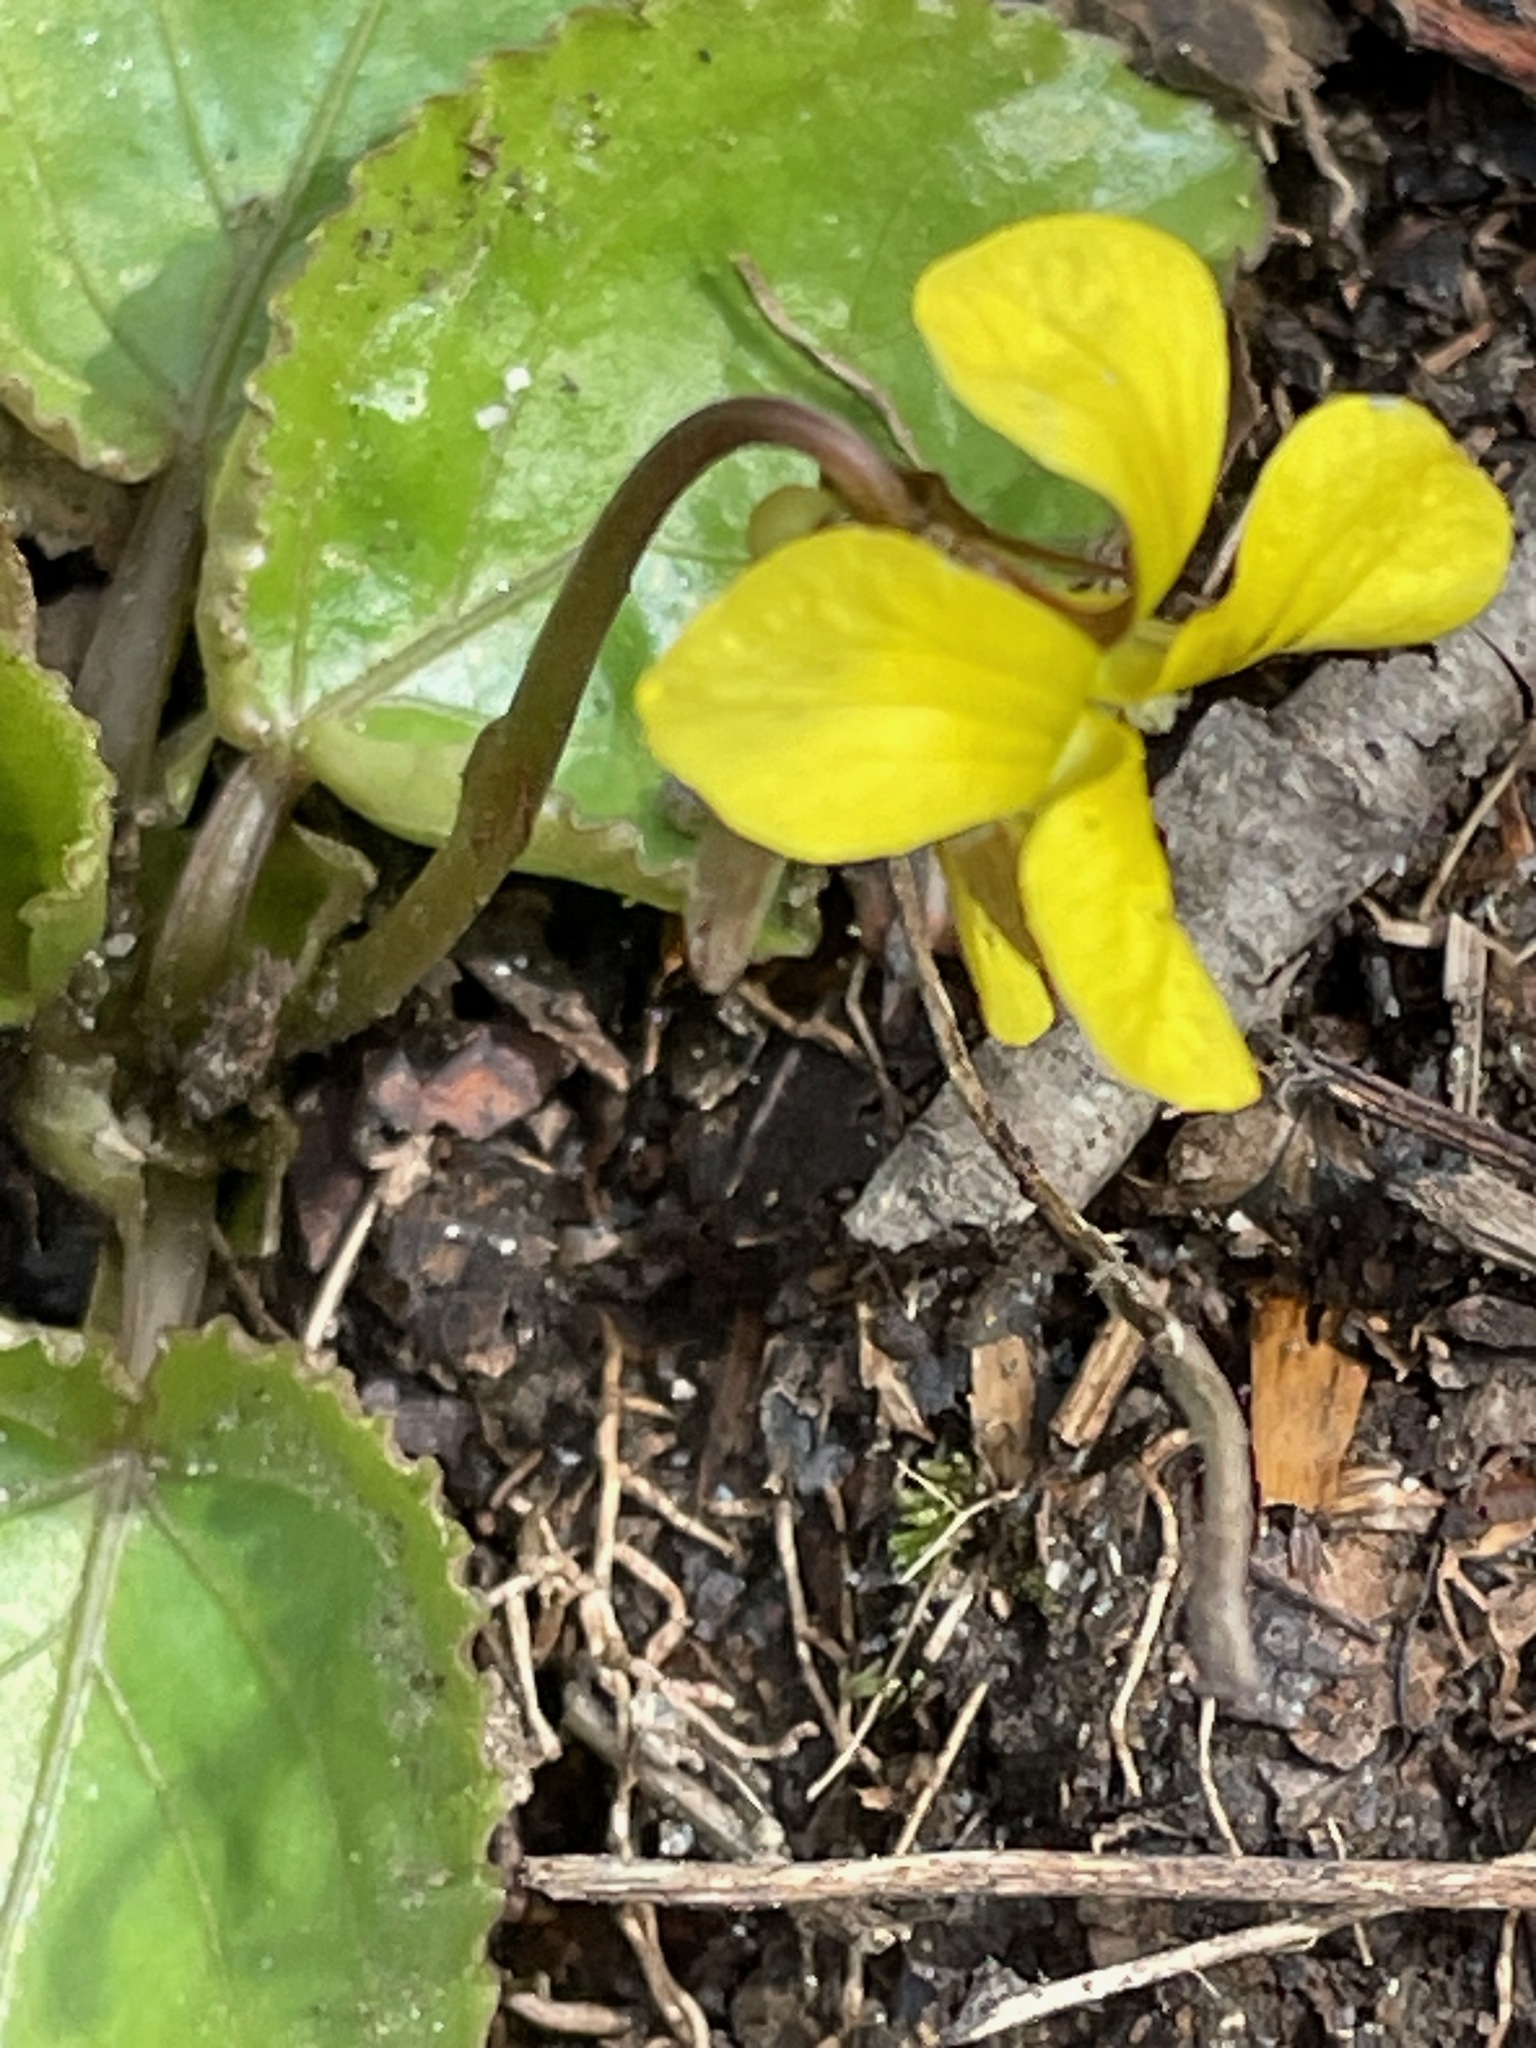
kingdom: Plantae
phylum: Tracheophyta
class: Magnoliopsida
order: Malpighiales
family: Violaceae
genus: Viola
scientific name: Viola rotundifolia
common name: Early yellow violet
